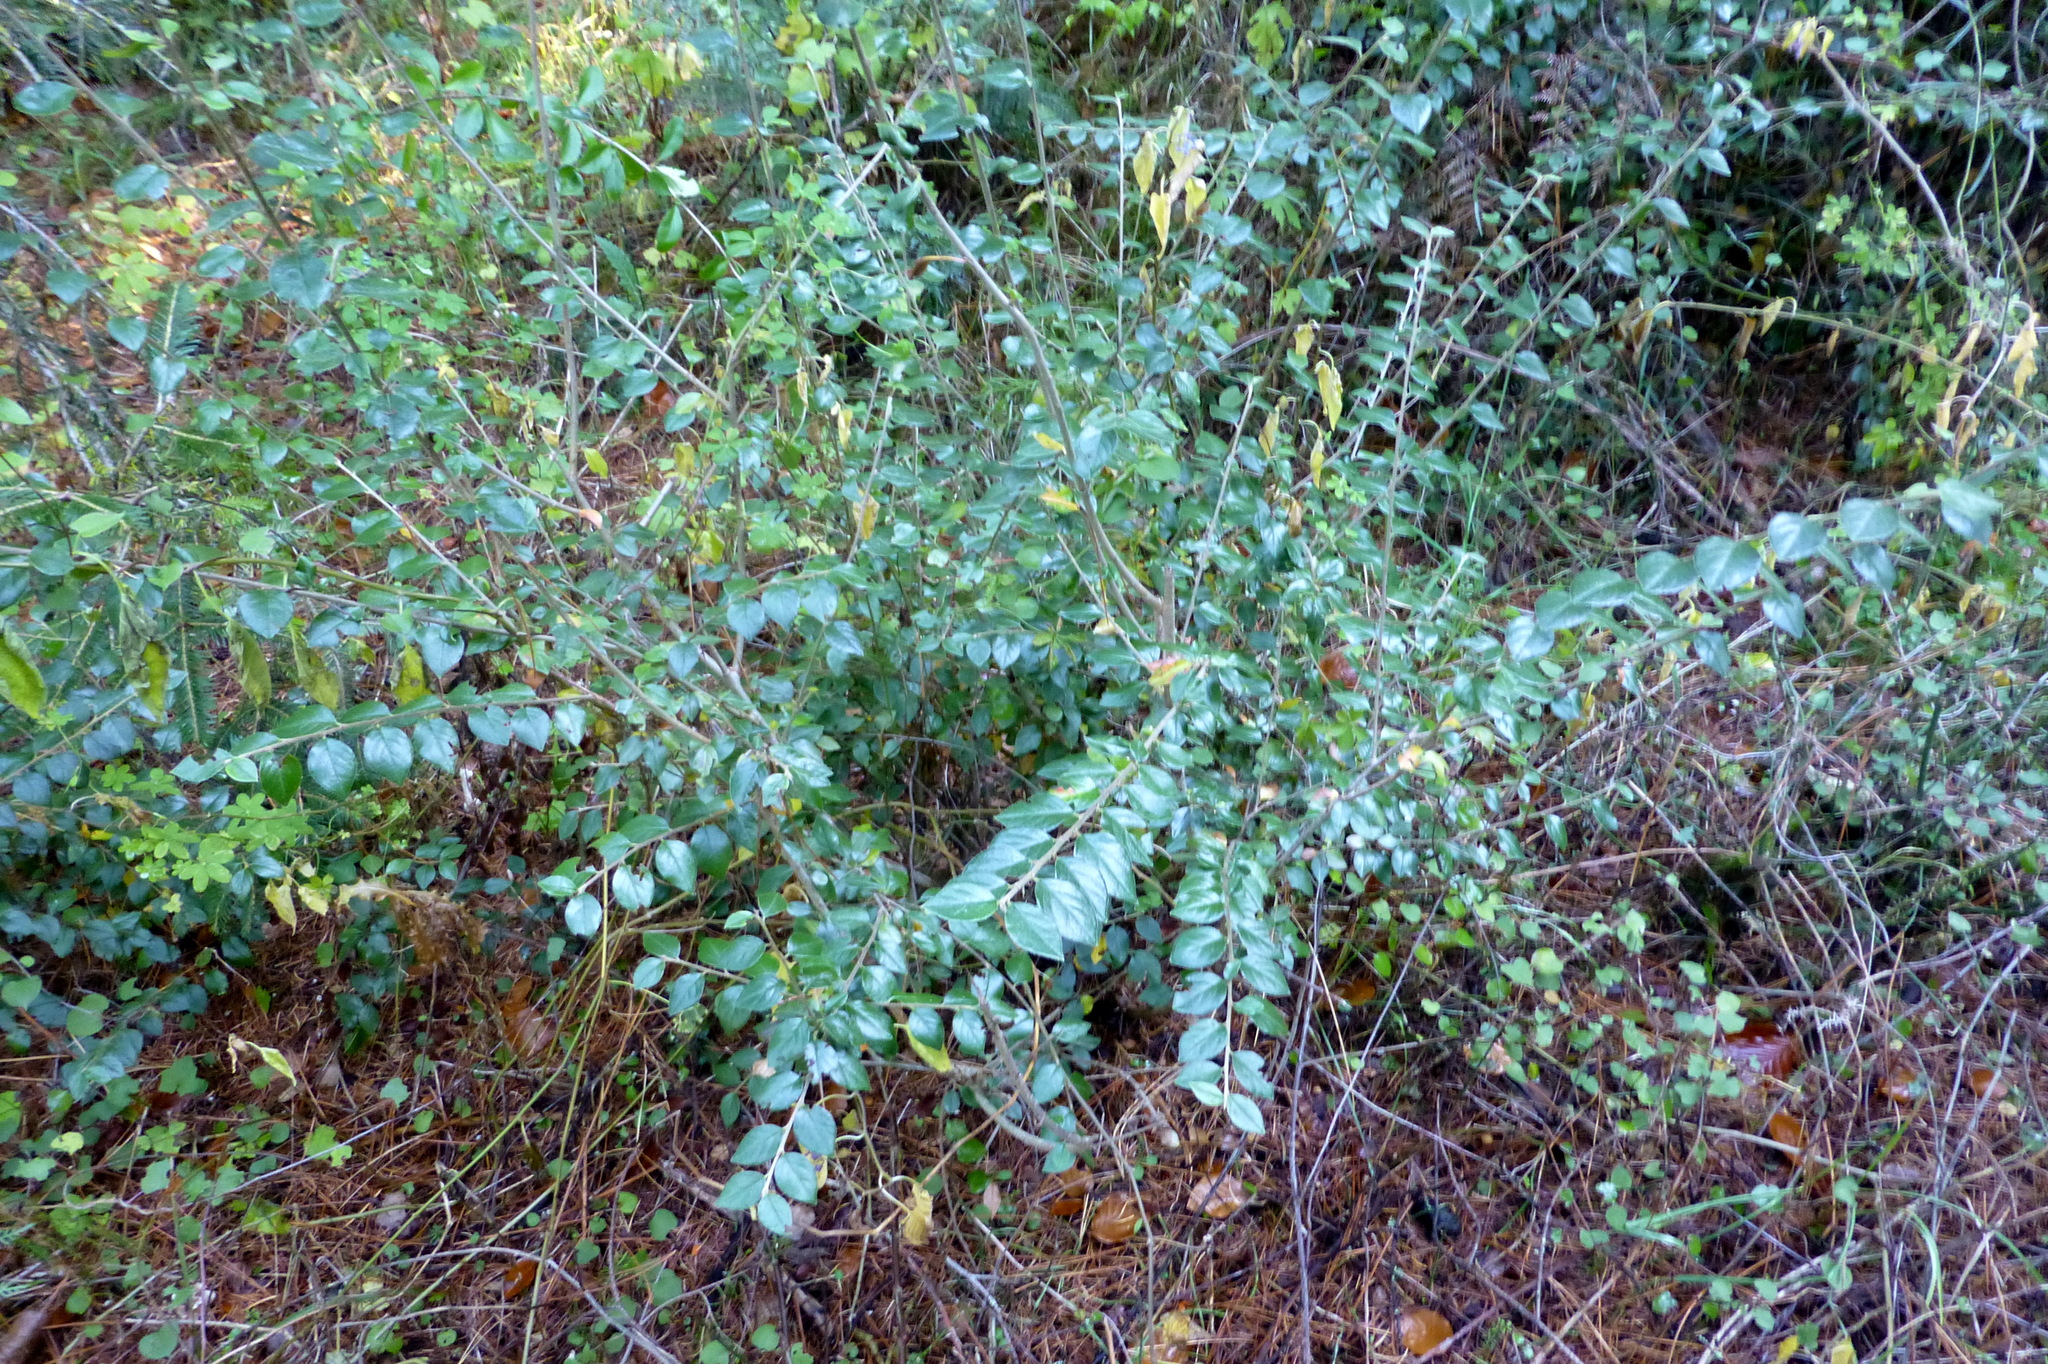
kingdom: Plantae
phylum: Tracheophyta
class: Magnoliopsida
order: Rosales
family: Rosaceae
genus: Cotoneaster
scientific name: Cotoneaster franchetii
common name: Franchet's cotoneaster
